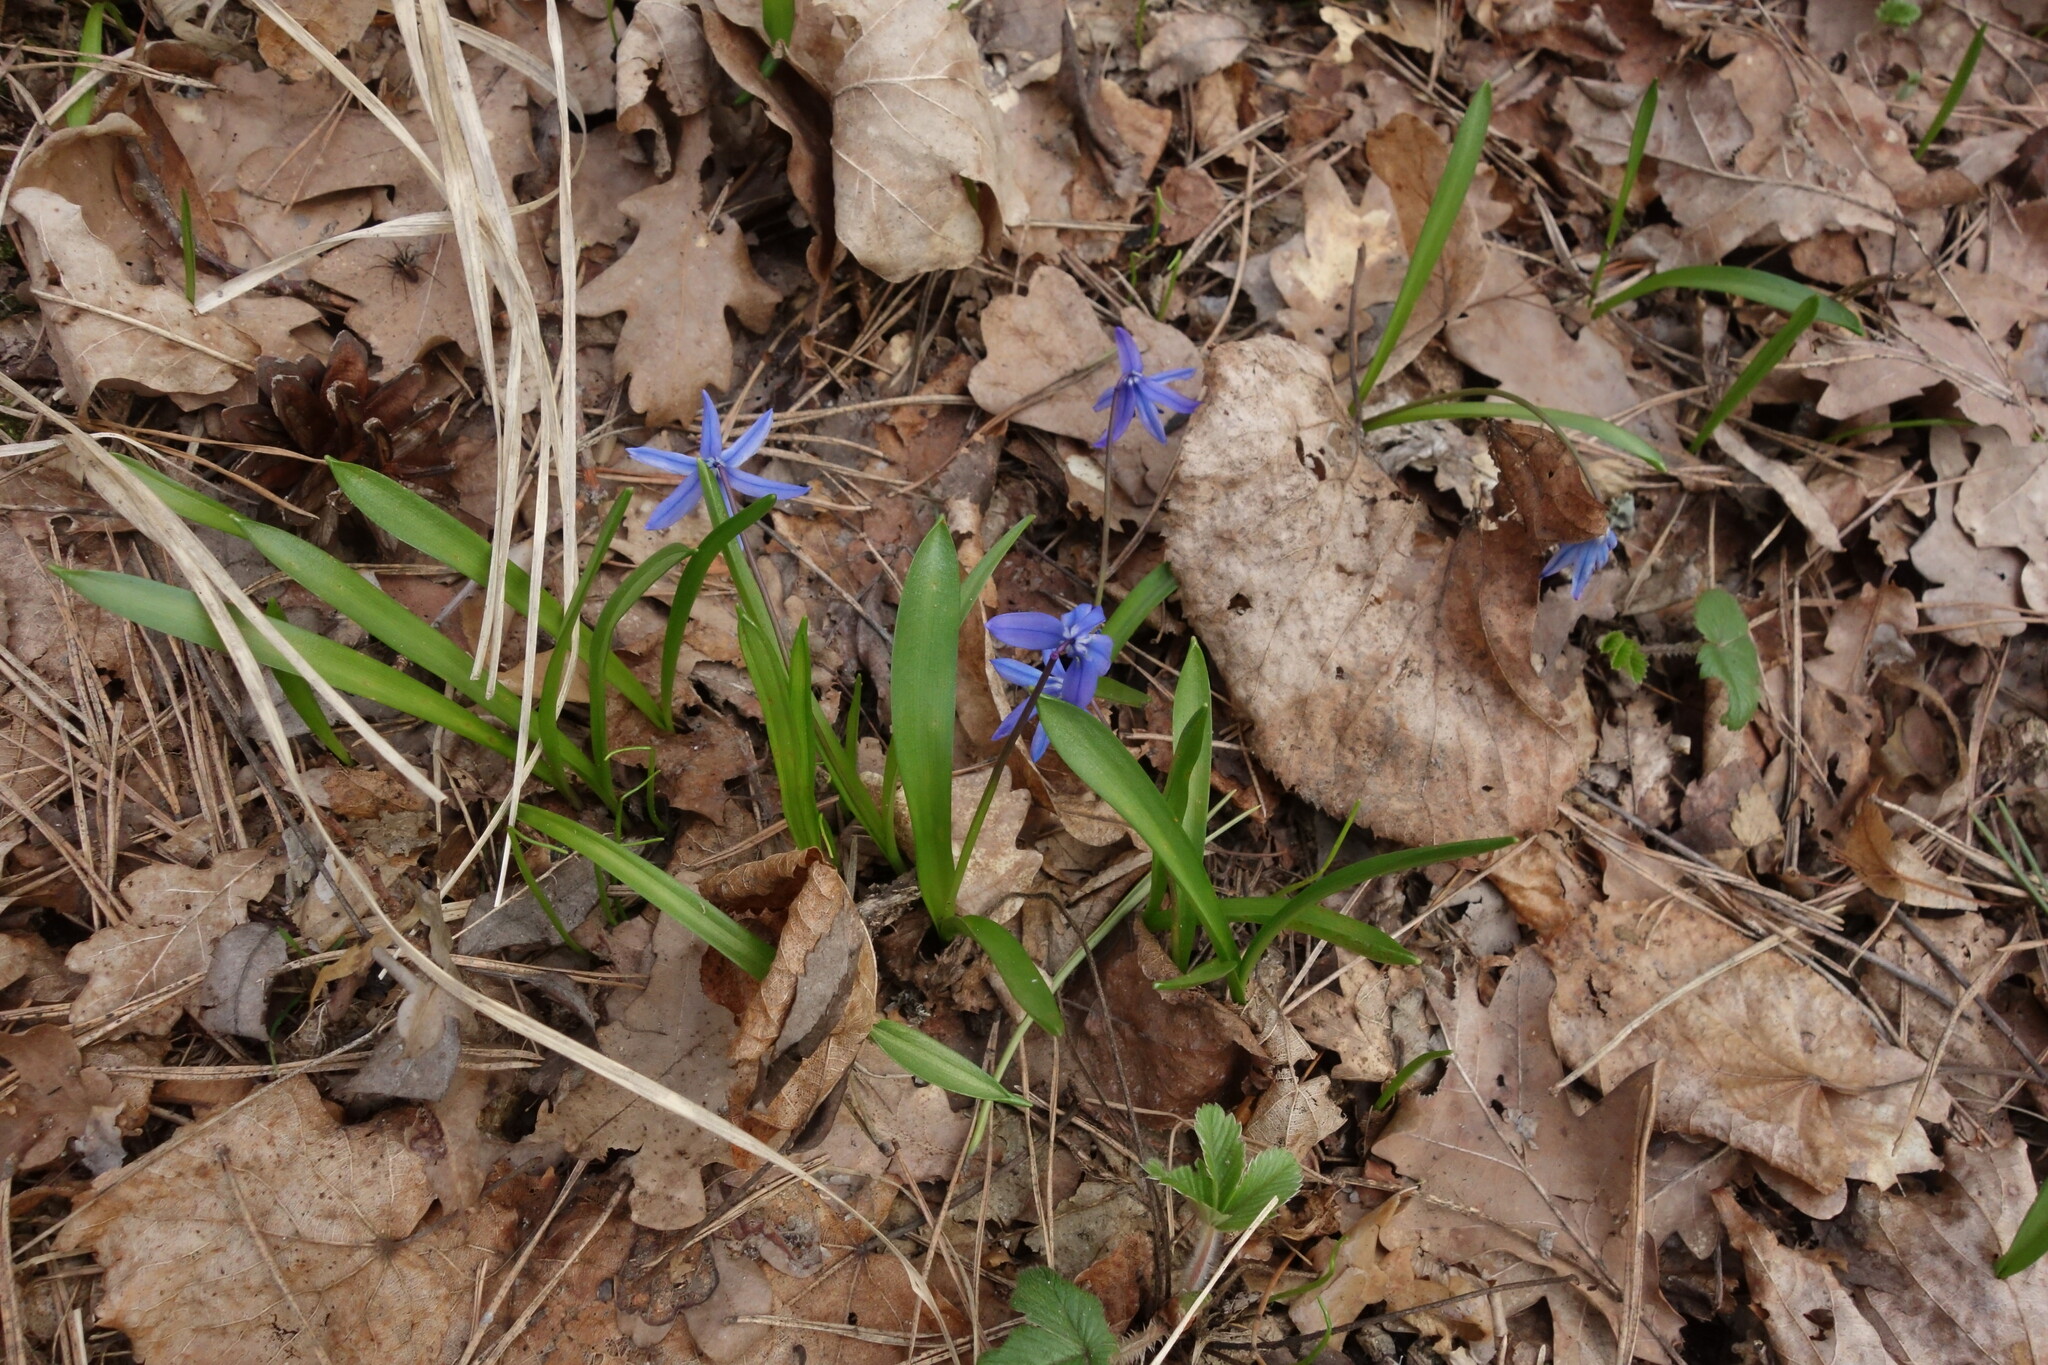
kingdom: Plantae
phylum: Tracheophyta
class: Liliopsida
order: Asparagales
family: Asparagaceae
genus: Scilla
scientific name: Scilla siberica
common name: Siberian squill
